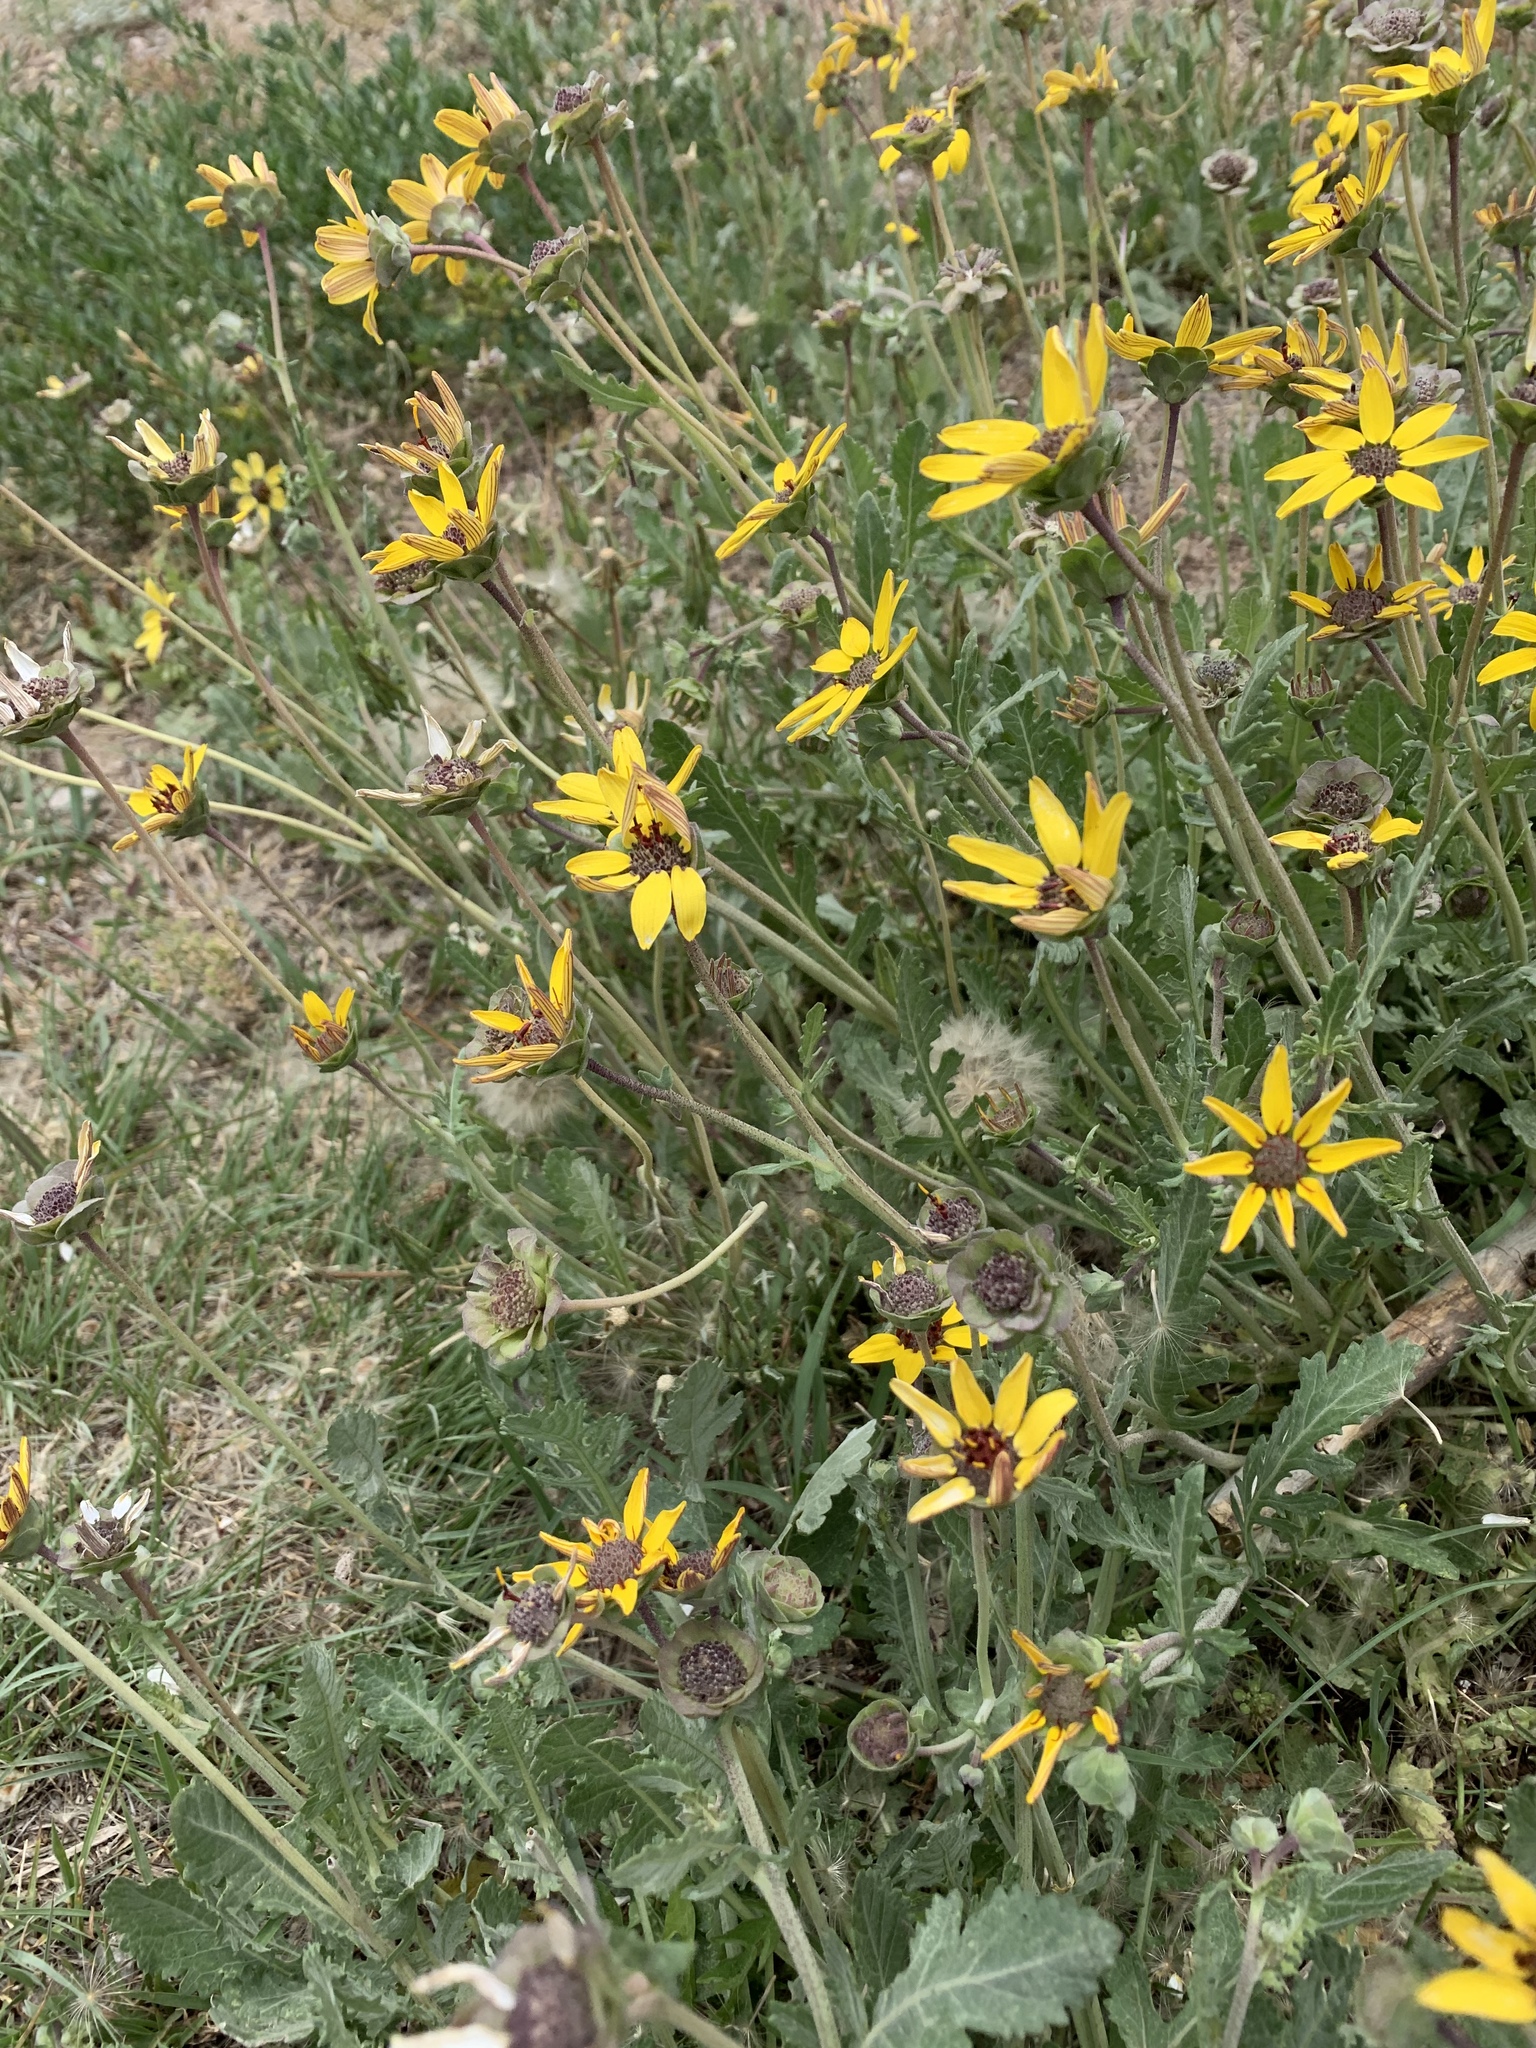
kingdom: Plantae
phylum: Tracheophyta
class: Magnoliopsida
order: Asterales
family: Asteraceae
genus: Berlandiera
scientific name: Berlandiera lyrata
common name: Chocolate-flower
